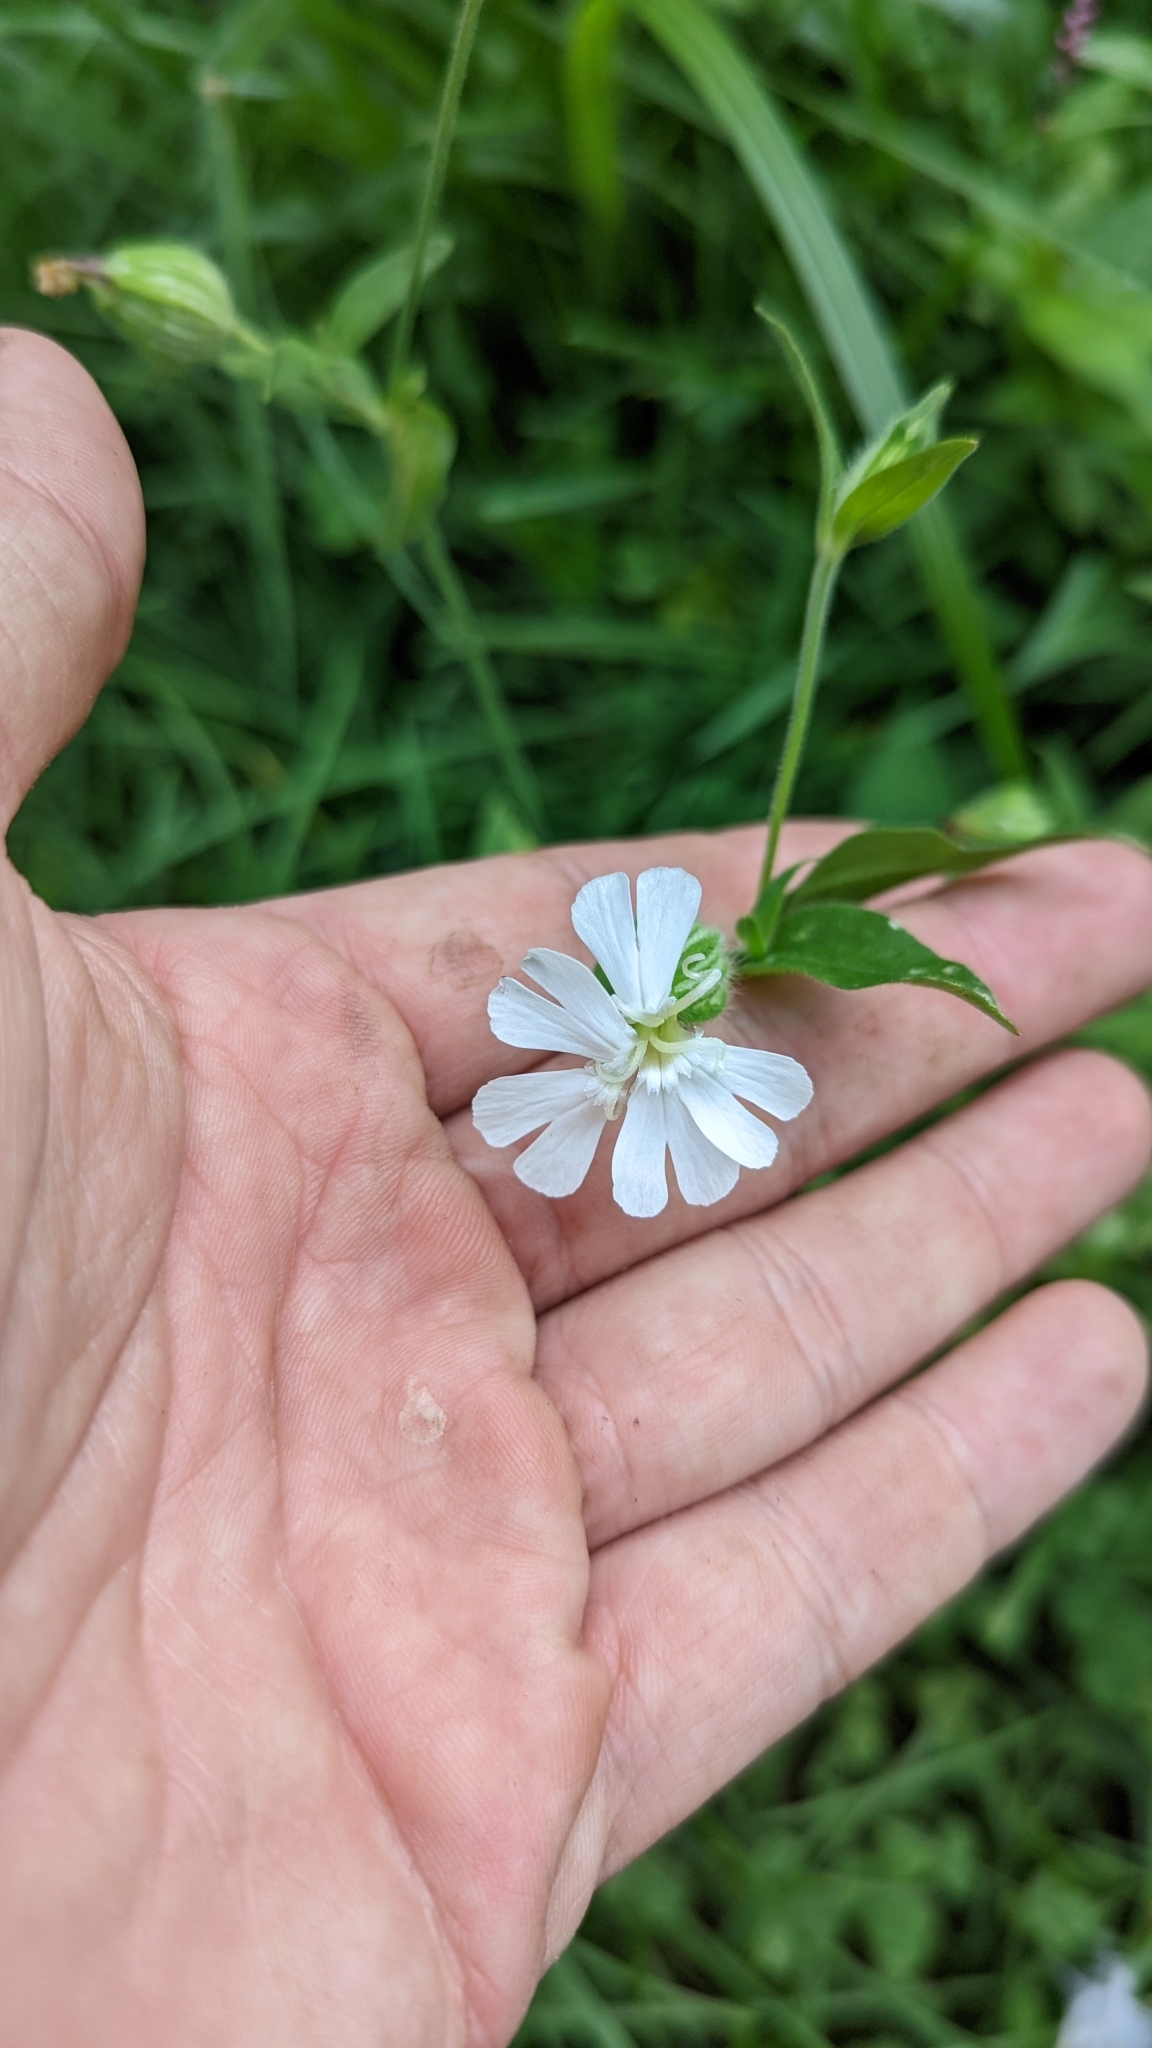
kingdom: Plantae
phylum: Tracheophyta
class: Magnoliopsida
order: Caryophyllales
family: Caryophyllaceae
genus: Silene
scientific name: Silene latifolia
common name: White campion
